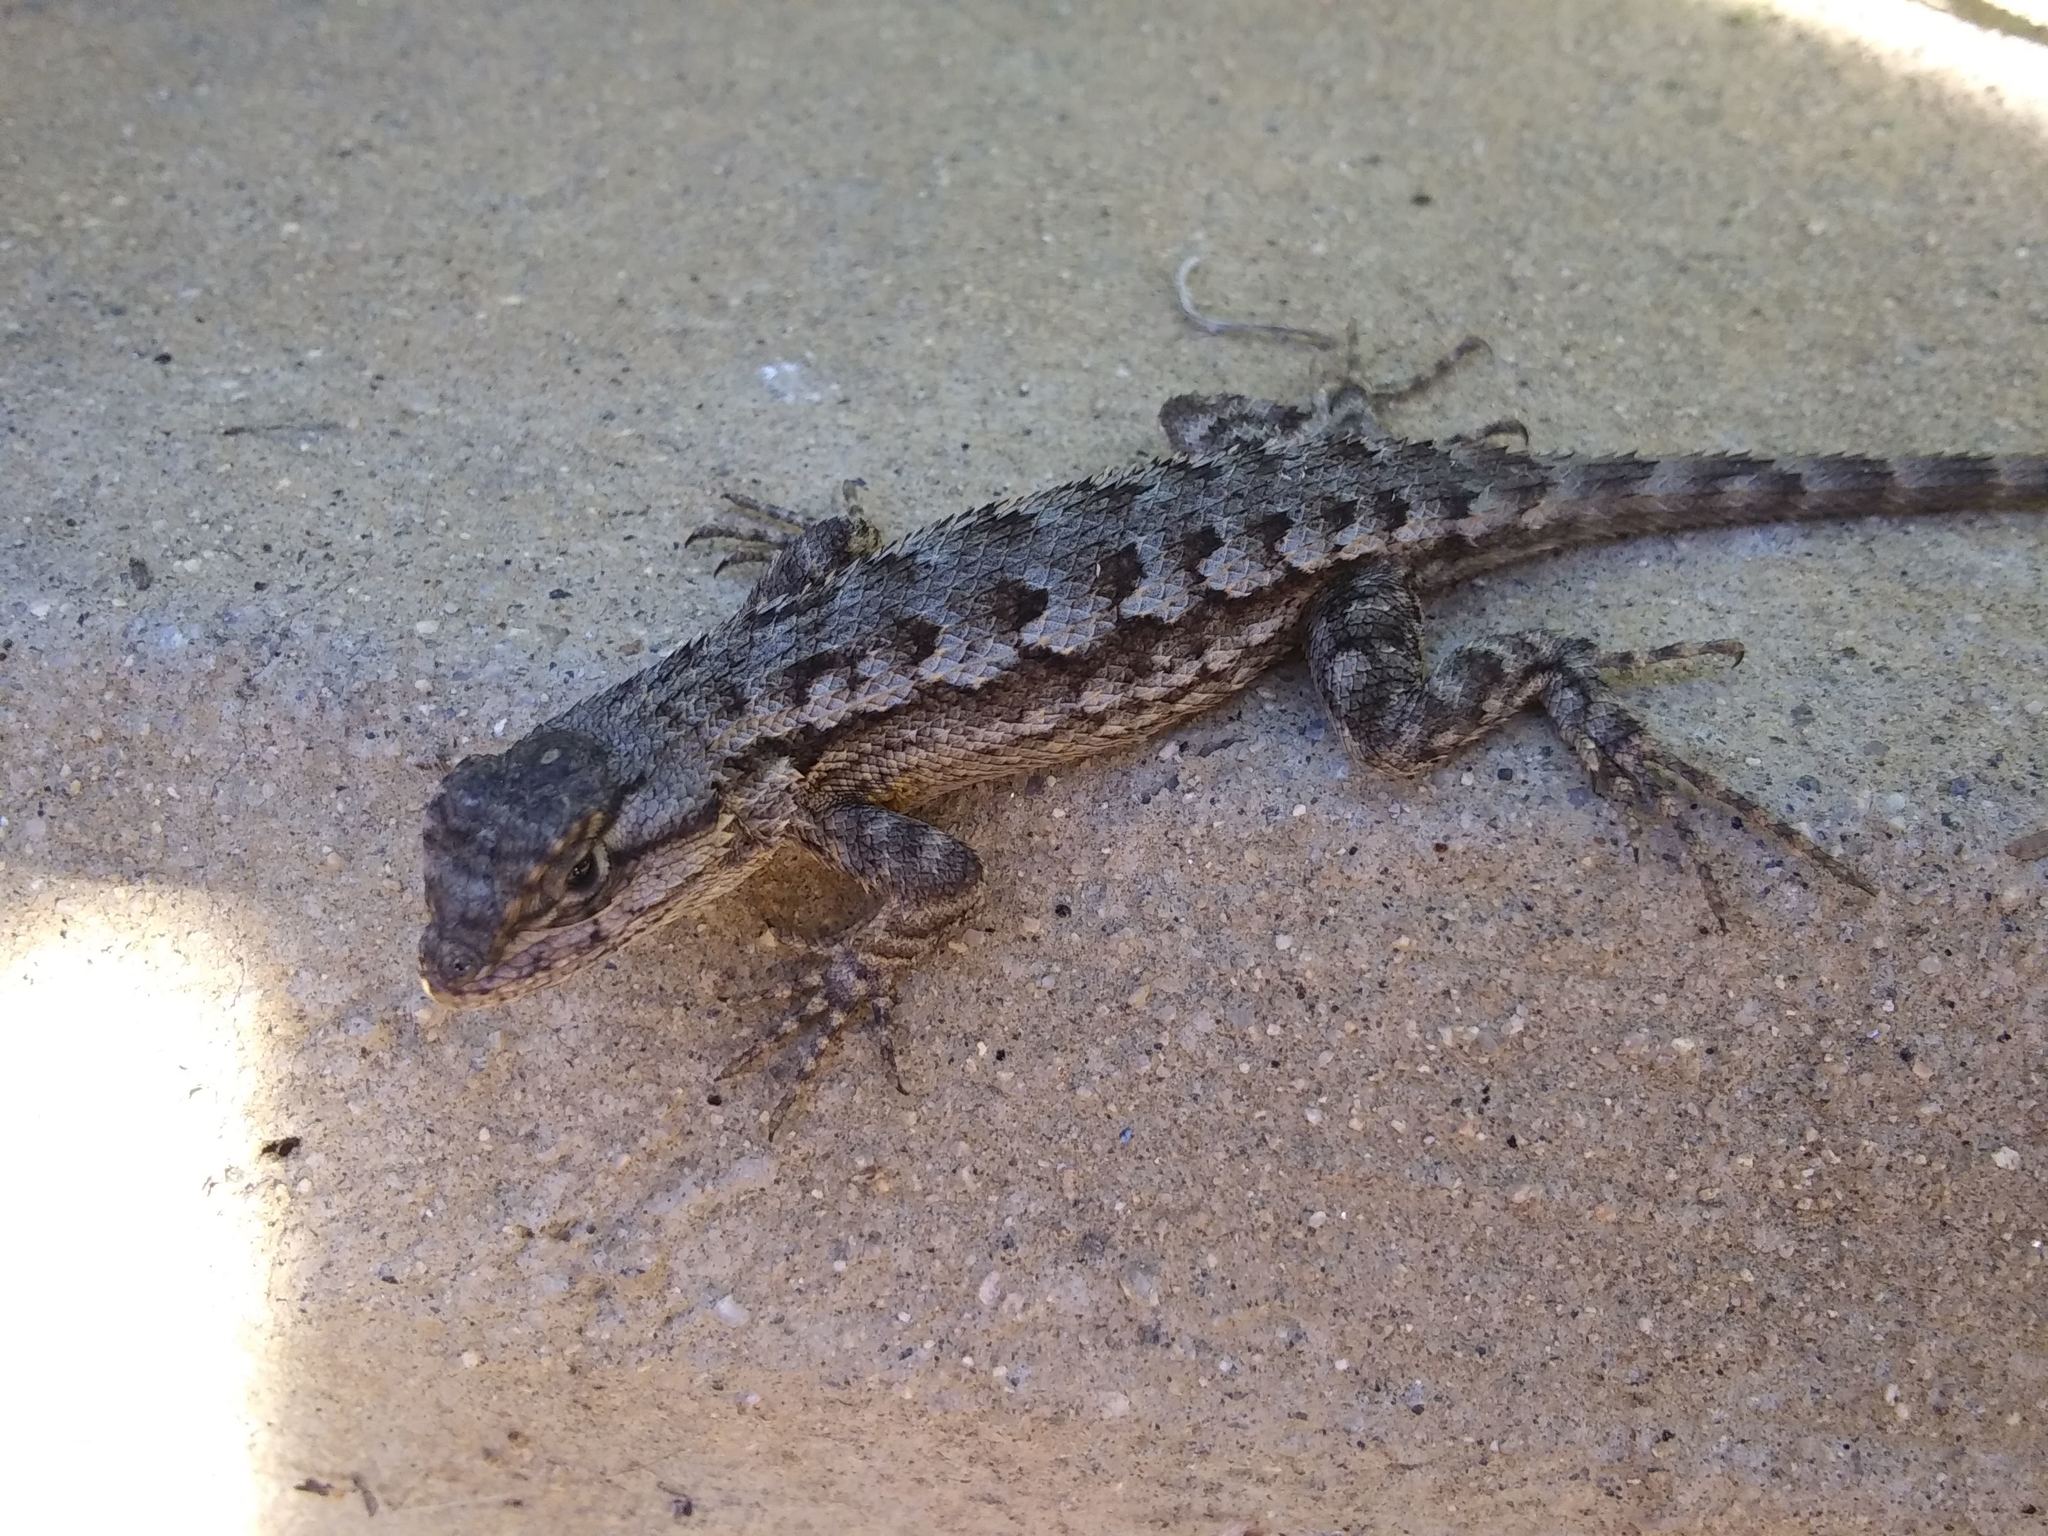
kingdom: Animalia
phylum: Chordata
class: Squamata
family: Phrynosomatidae
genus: Sceloporus
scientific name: Sceloporus occidentalis
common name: Western fence lizard
